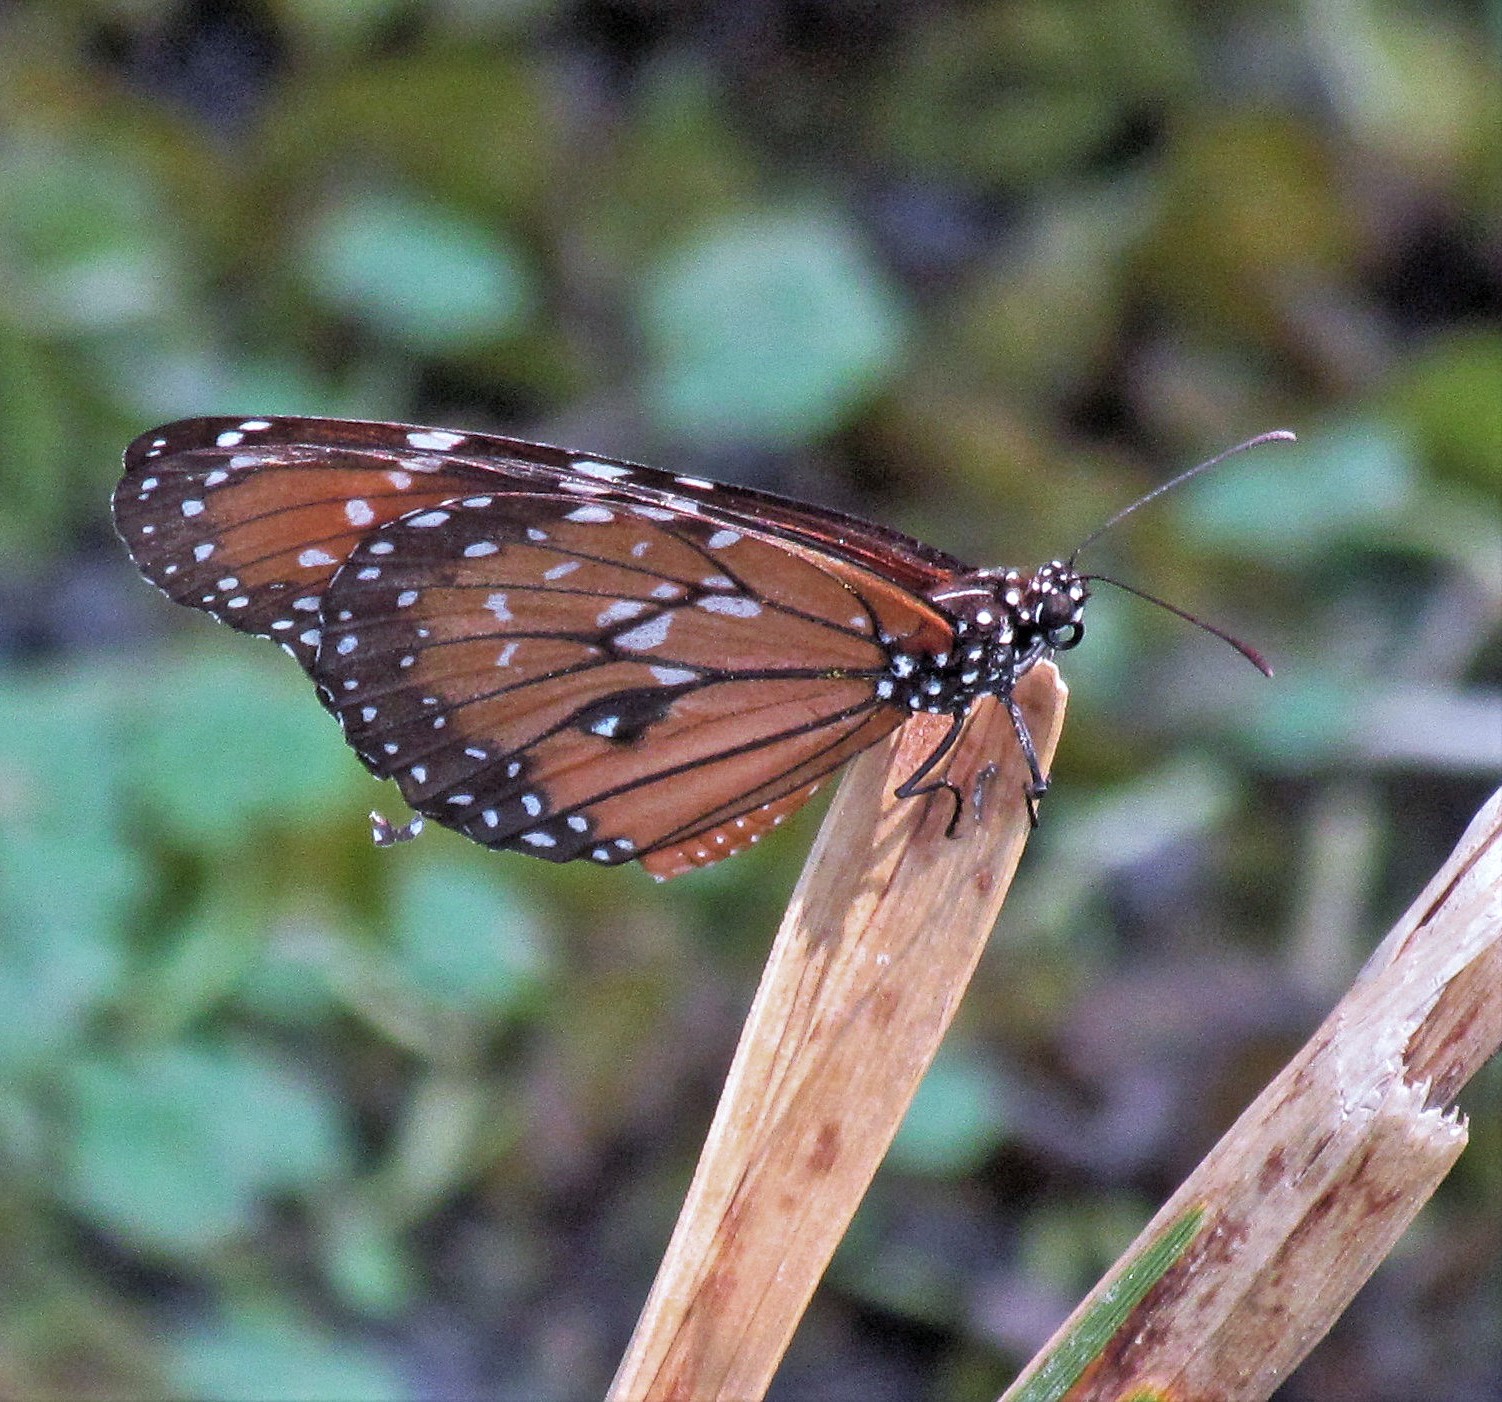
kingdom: Animalia
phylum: Arthropoda
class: Insecta
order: Lepidoptera
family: Nymphalidae
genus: Danaus
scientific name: Danaus eresimus
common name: Soldier
